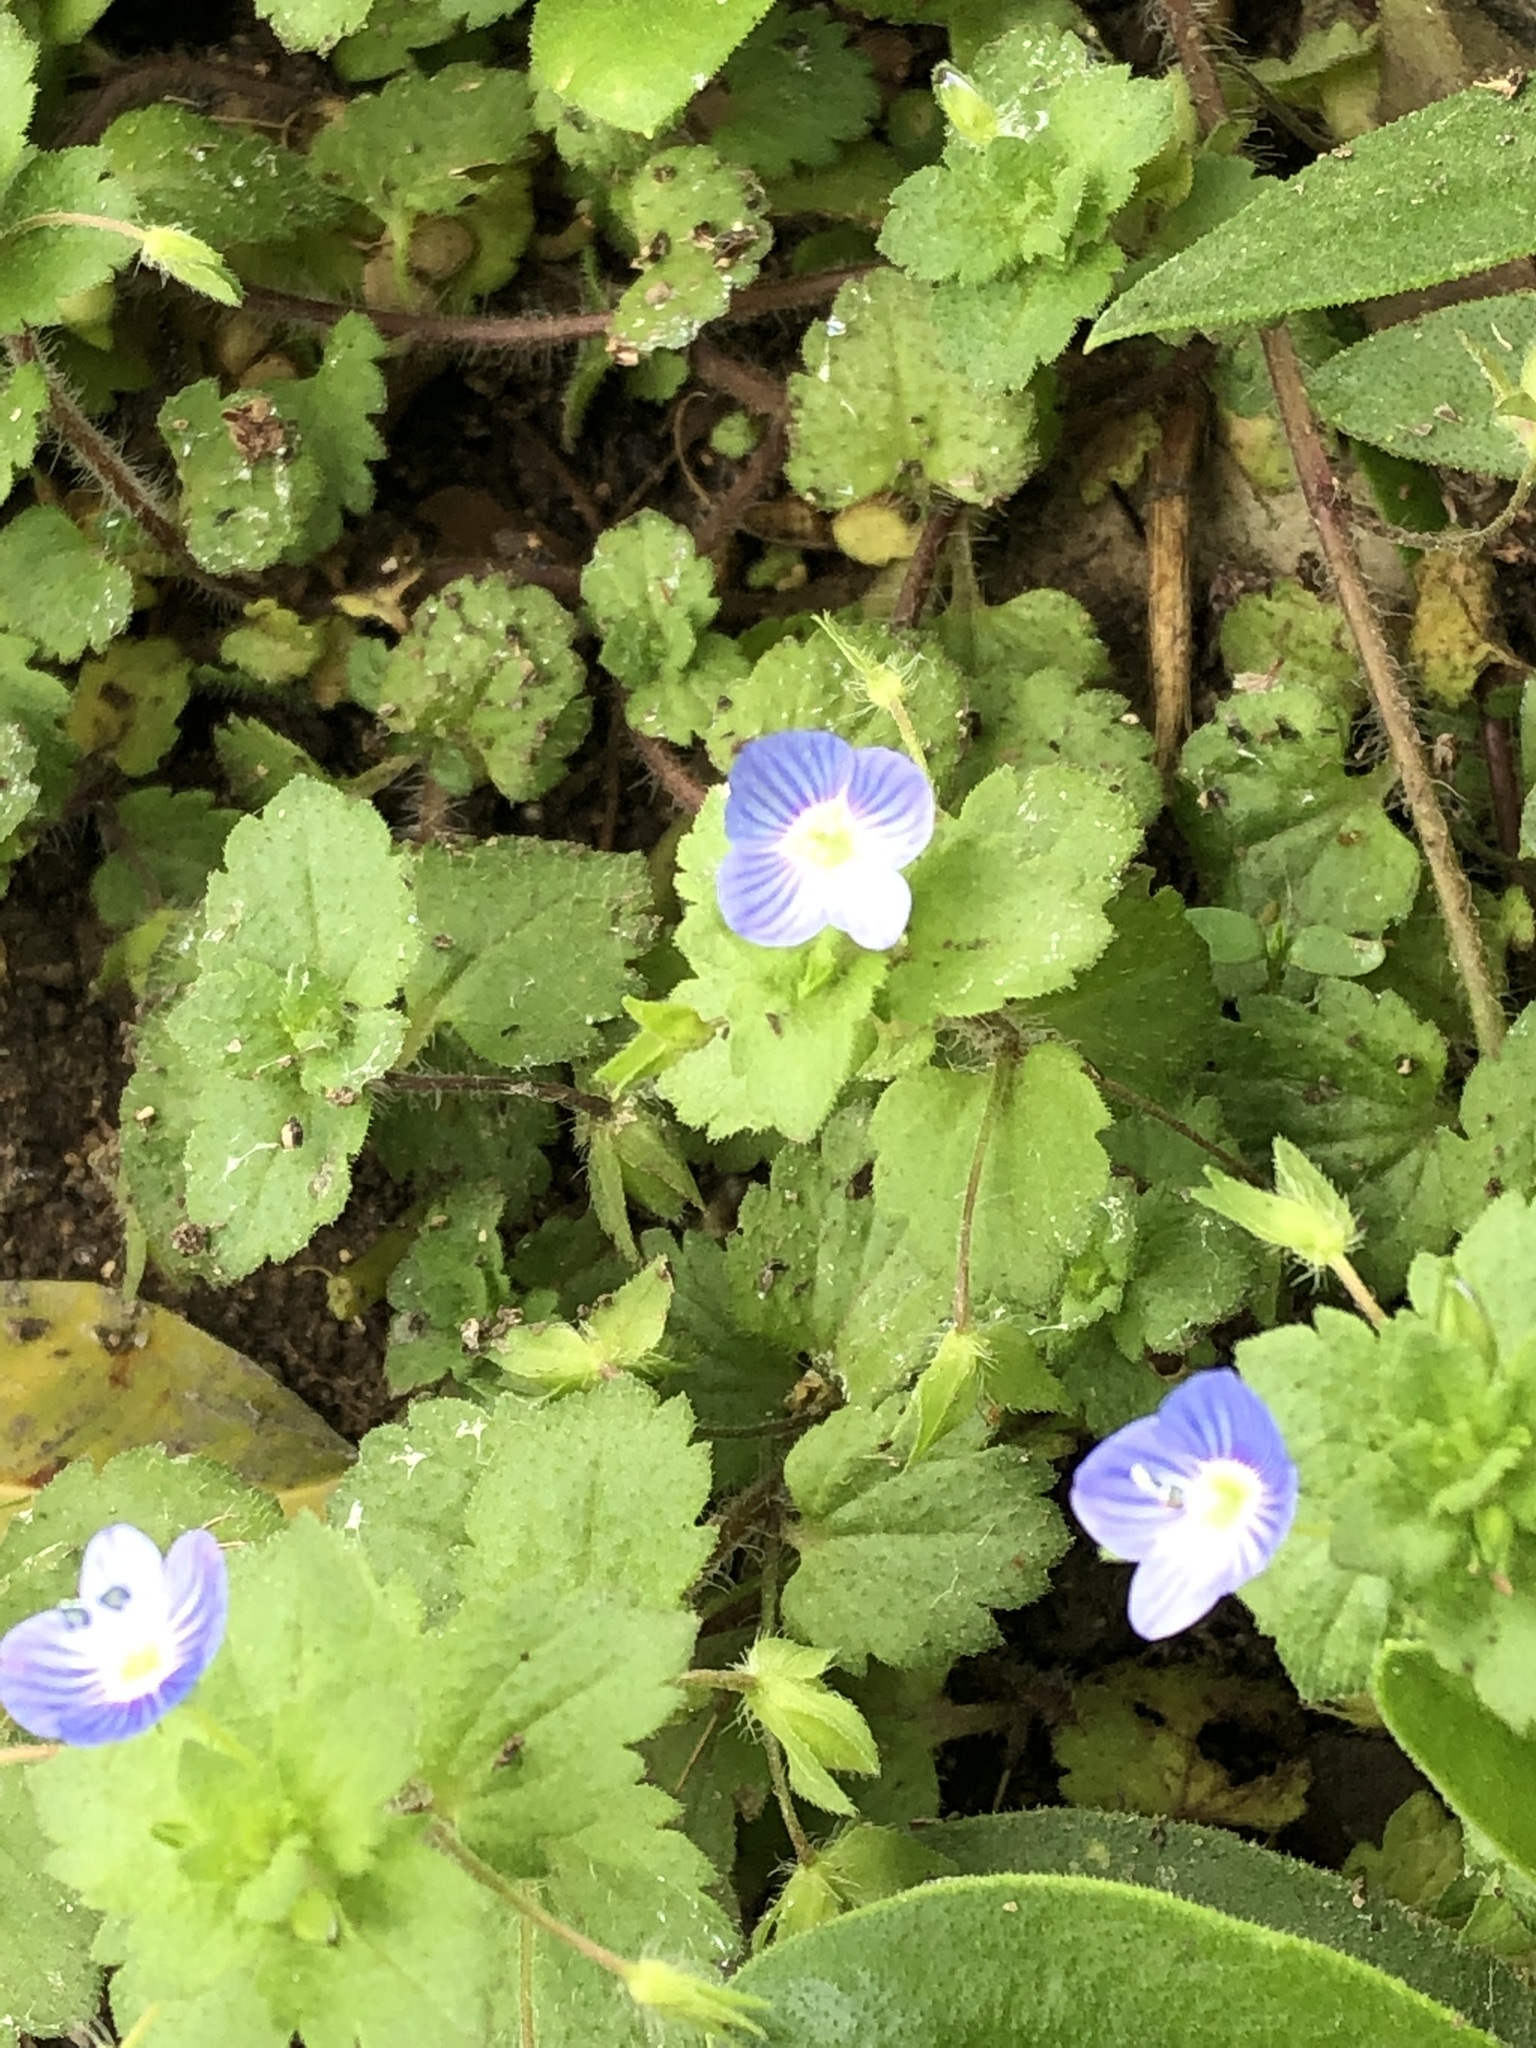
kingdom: Plantae
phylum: Tracheophyta
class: Magnoliopsida
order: Lamiales
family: Plantaginaceae
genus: Veronica
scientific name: Veronica persica
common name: Common field-speedwell
